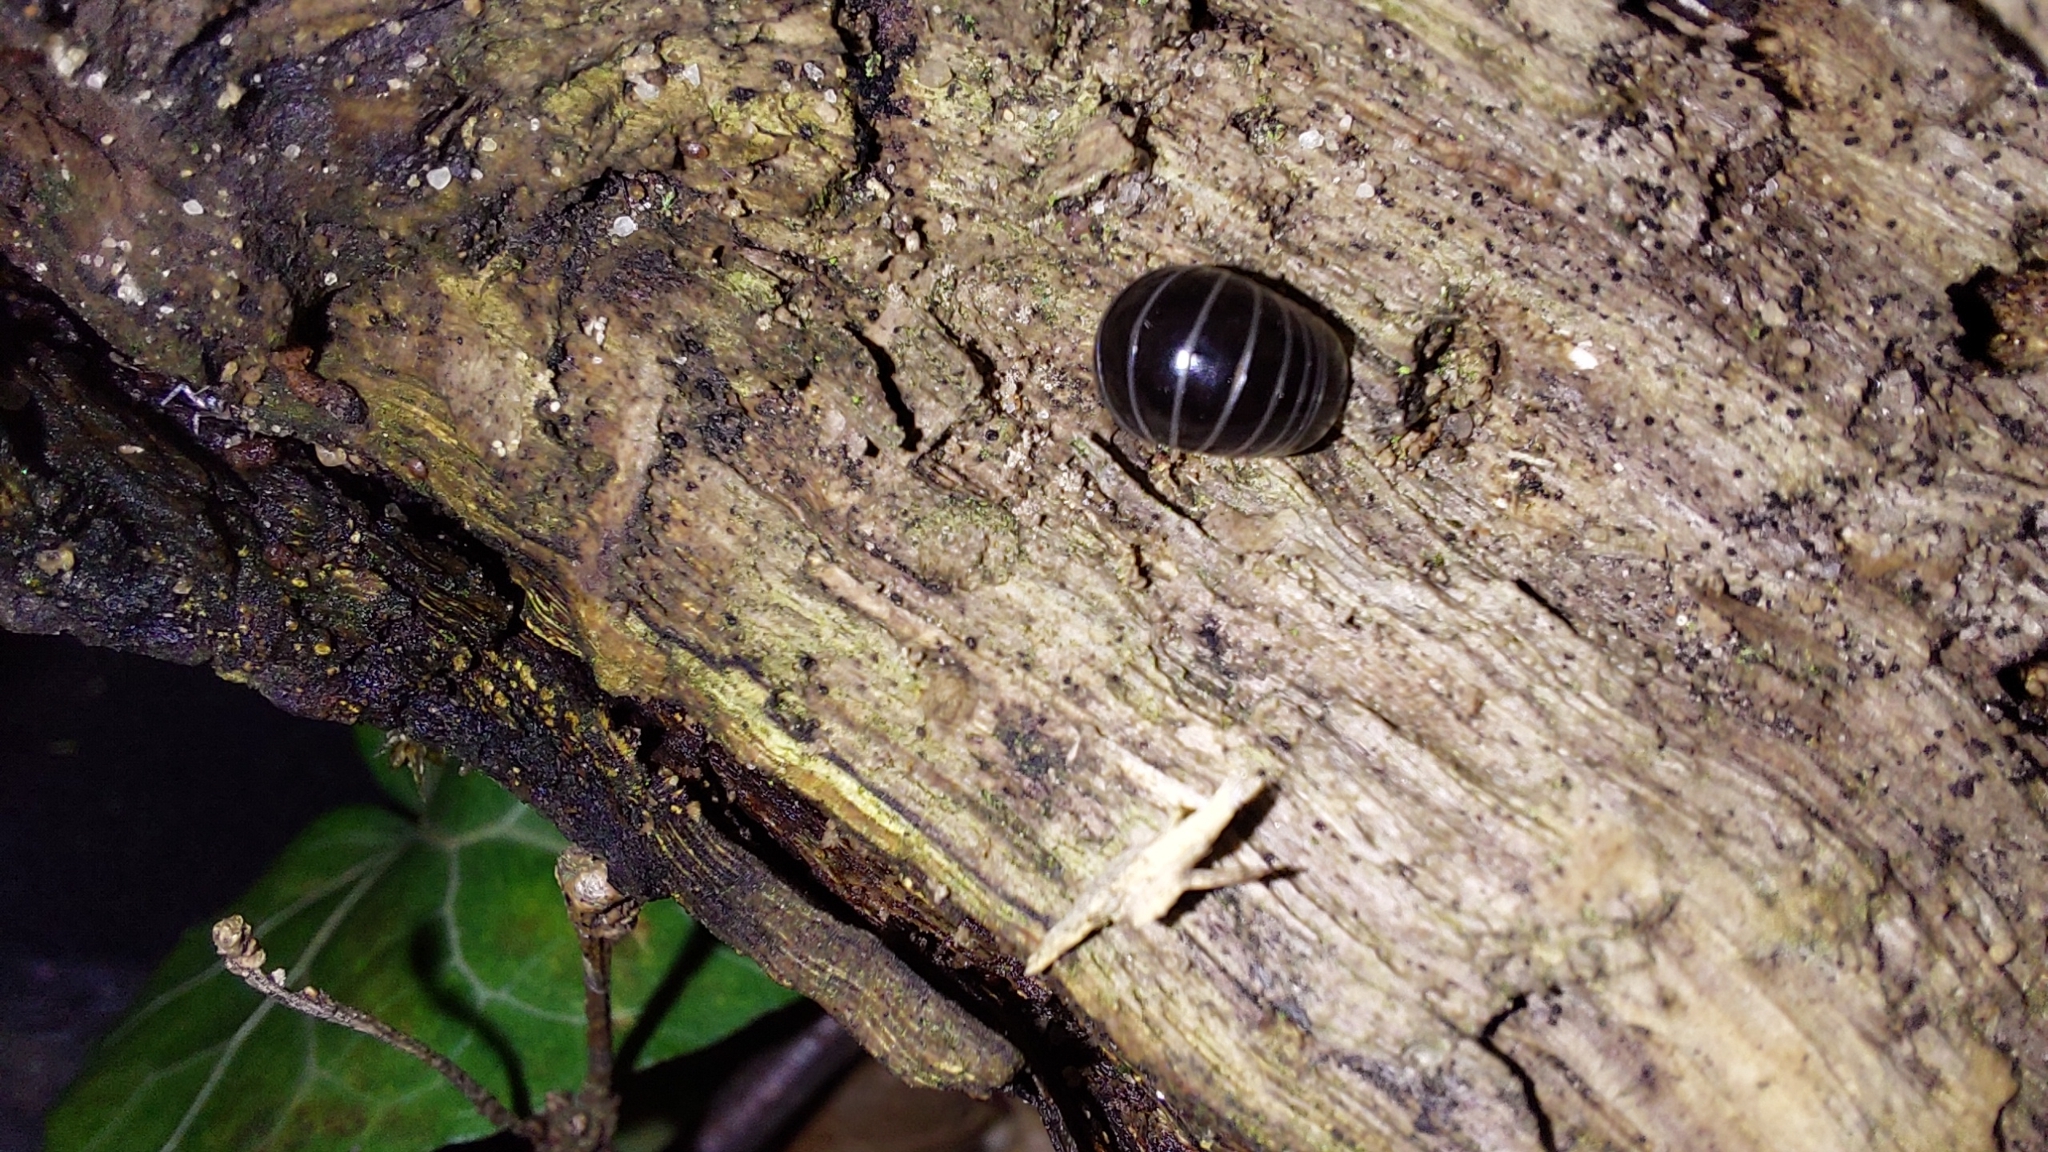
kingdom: Animalia
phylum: Arthropoda
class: Diplopoda
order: Glomerida
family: Glomeridae
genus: Glomeris
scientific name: Glomeris marginata
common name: Bordered pill millipede
